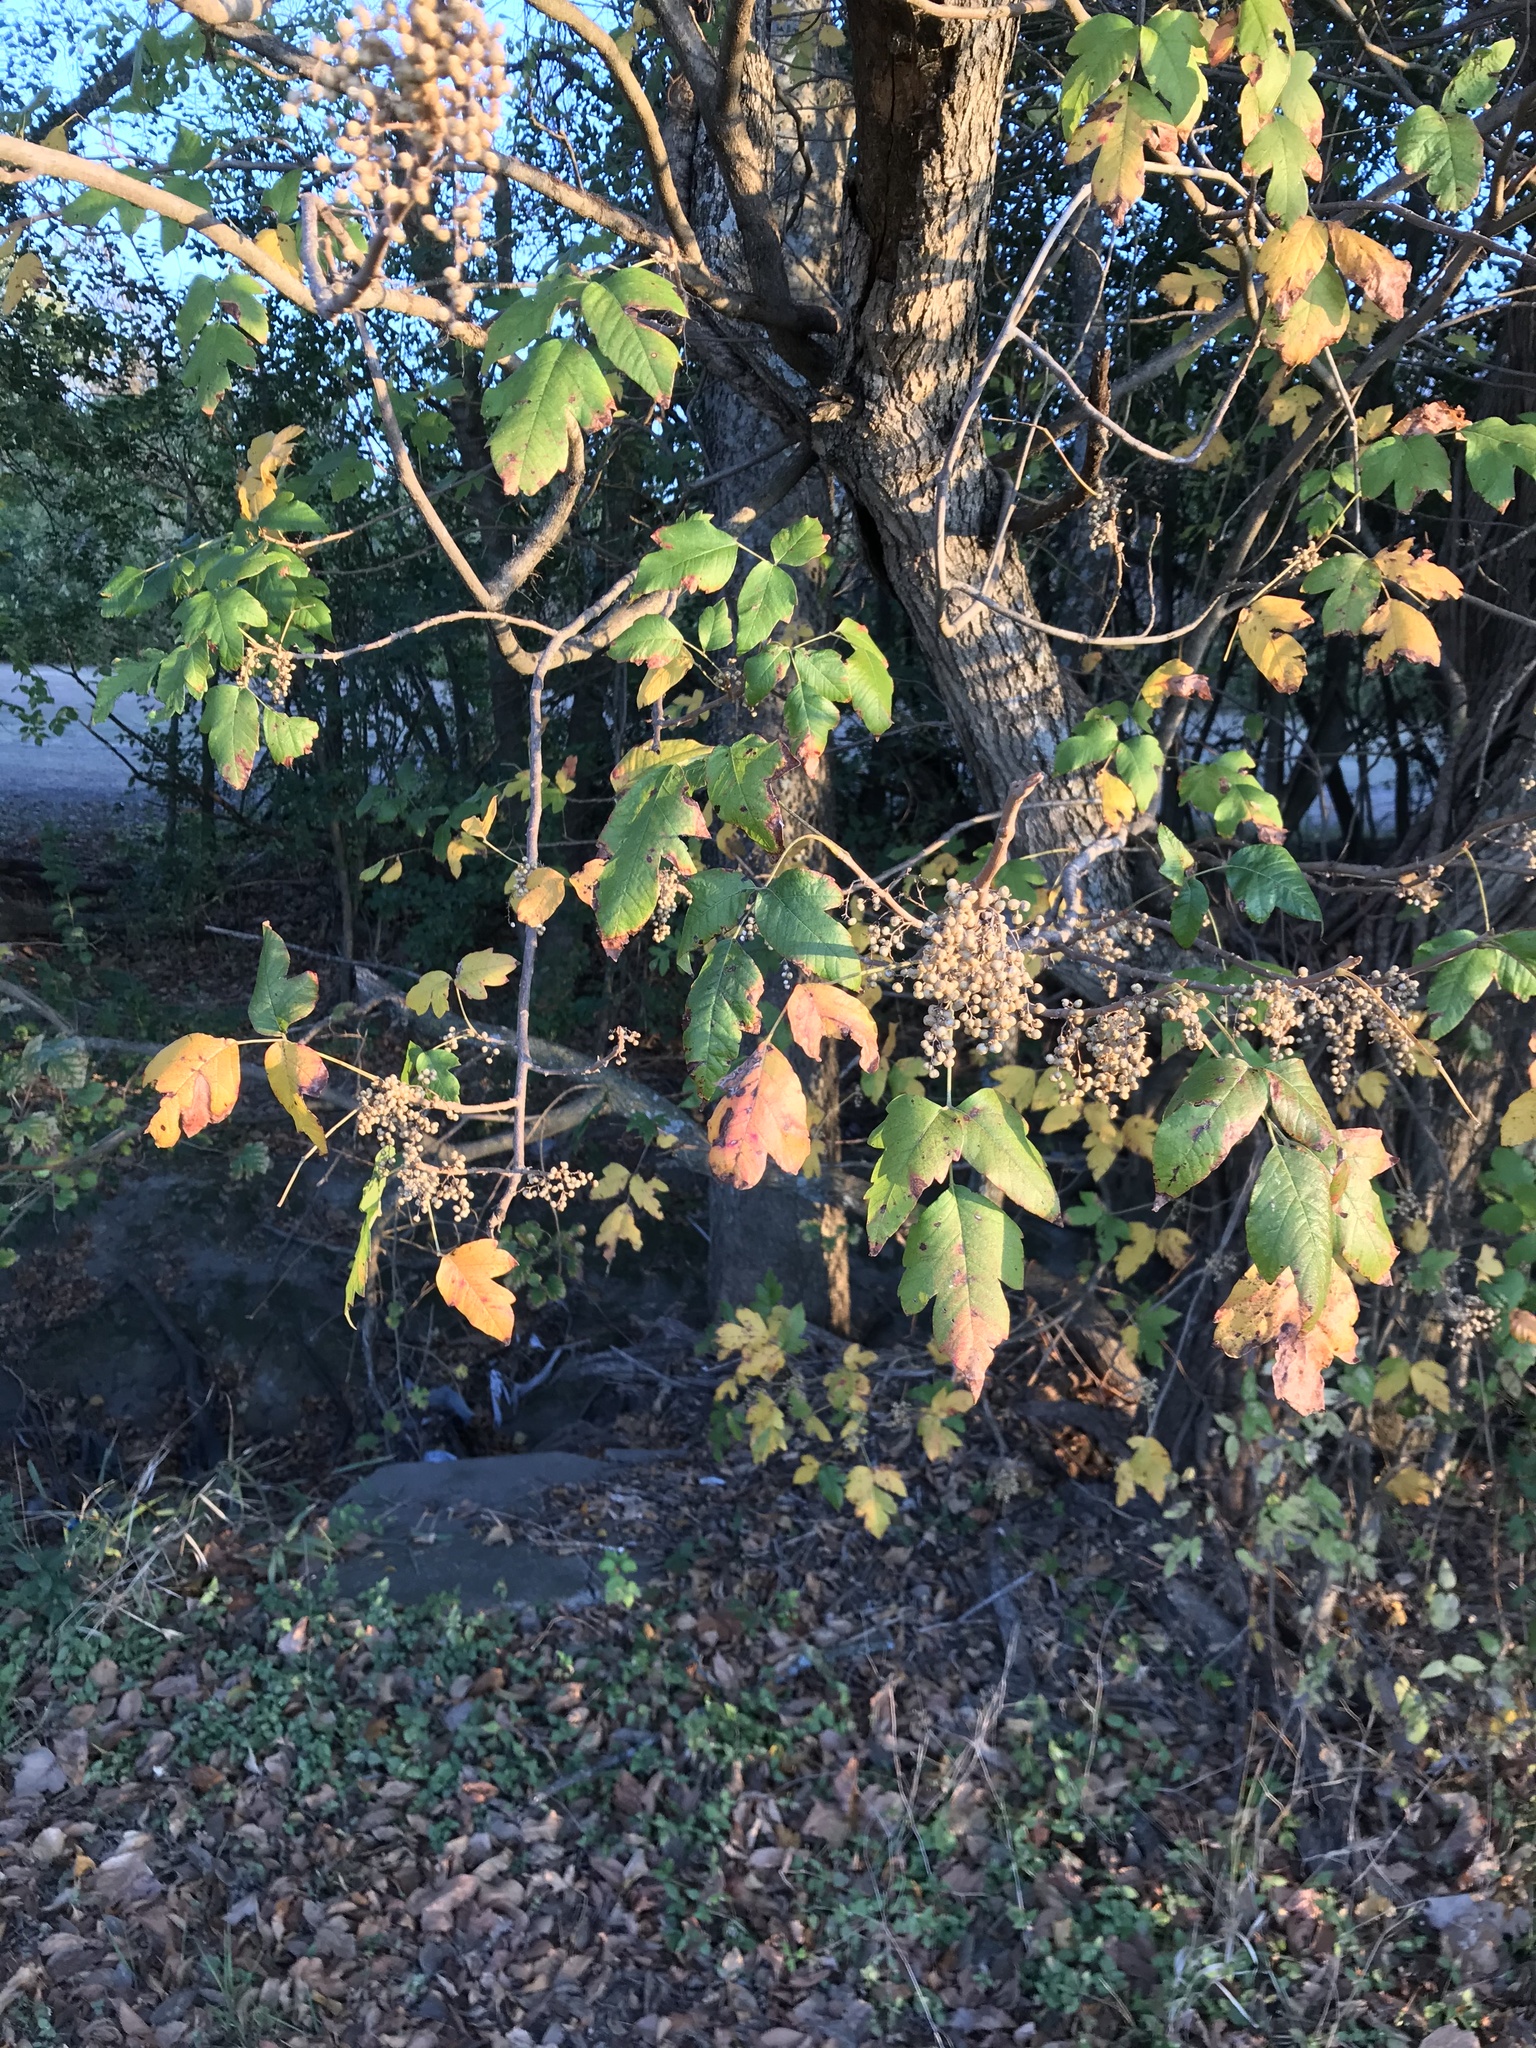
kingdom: Plantae
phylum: Tracheophyta
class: Magnoliopsida
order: Sapindales
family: Anacardiaceae
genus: Toxicodendron
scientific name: Toxicodendron radicans
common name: Poison ivy
